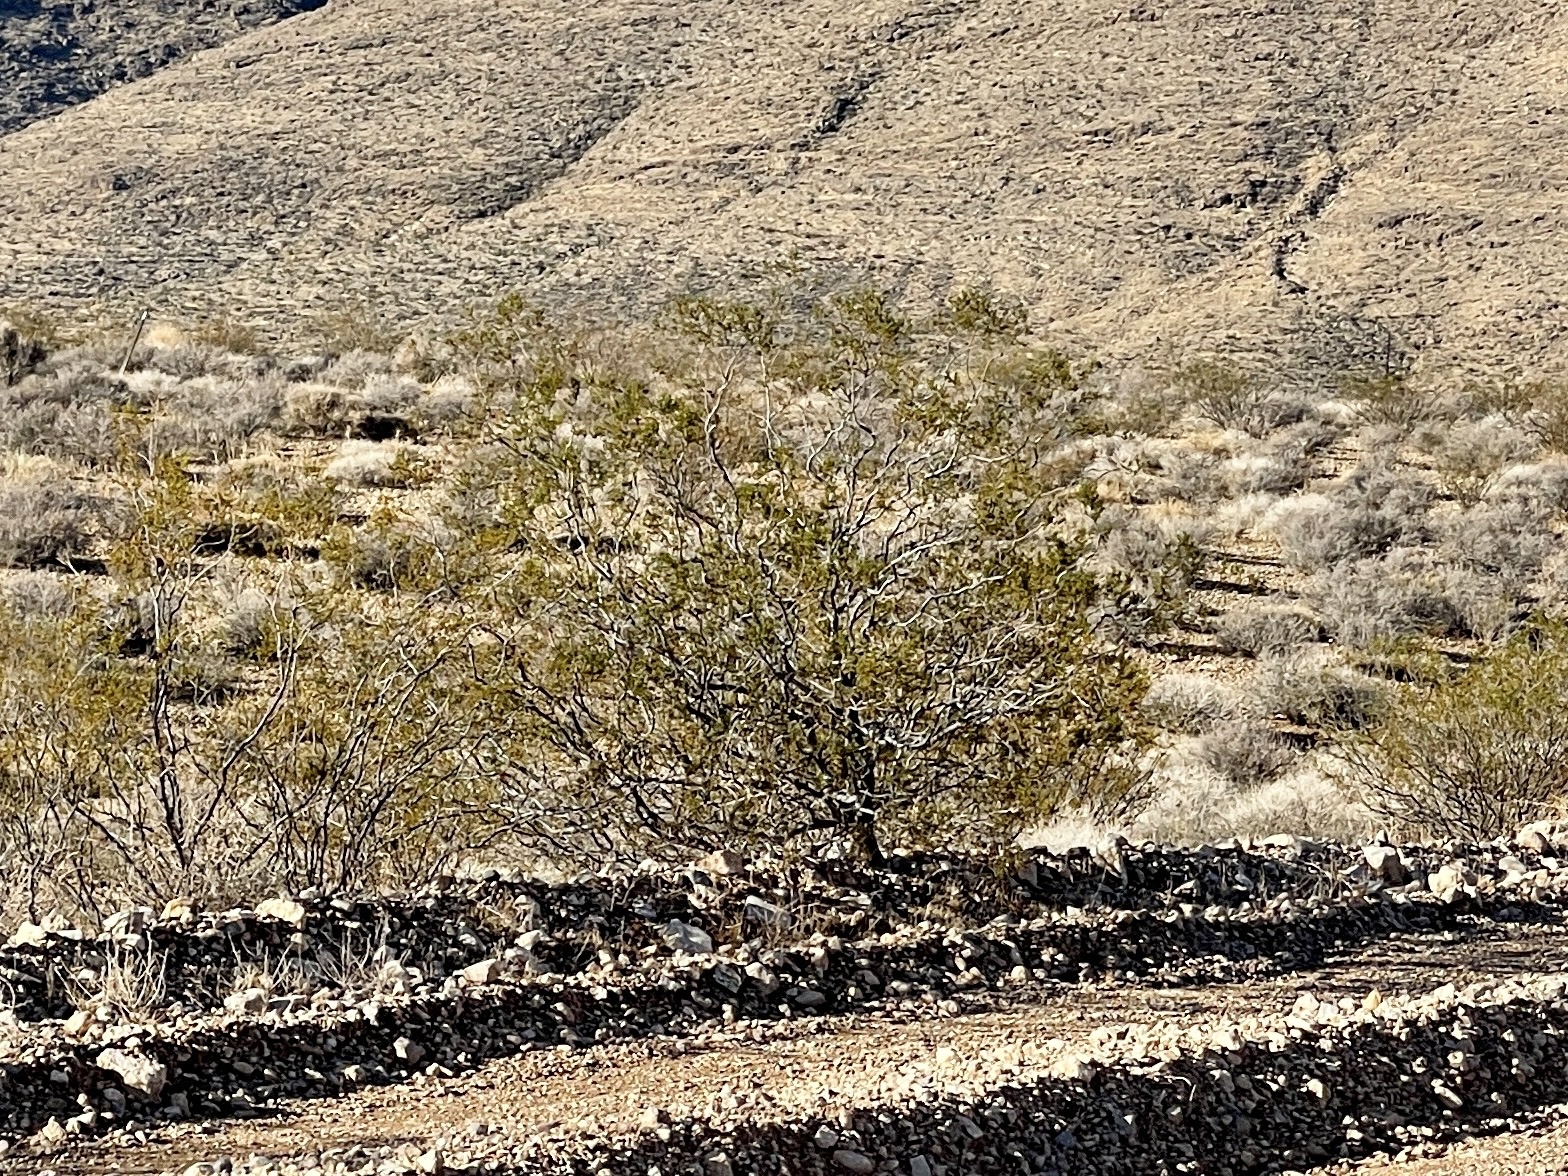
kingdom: Plantae
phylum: Tracheophyta
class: Magnoliopsida
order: Zygophyllales
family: Zygophyllaceae
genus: Larrea
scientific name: Larrea tridentata
